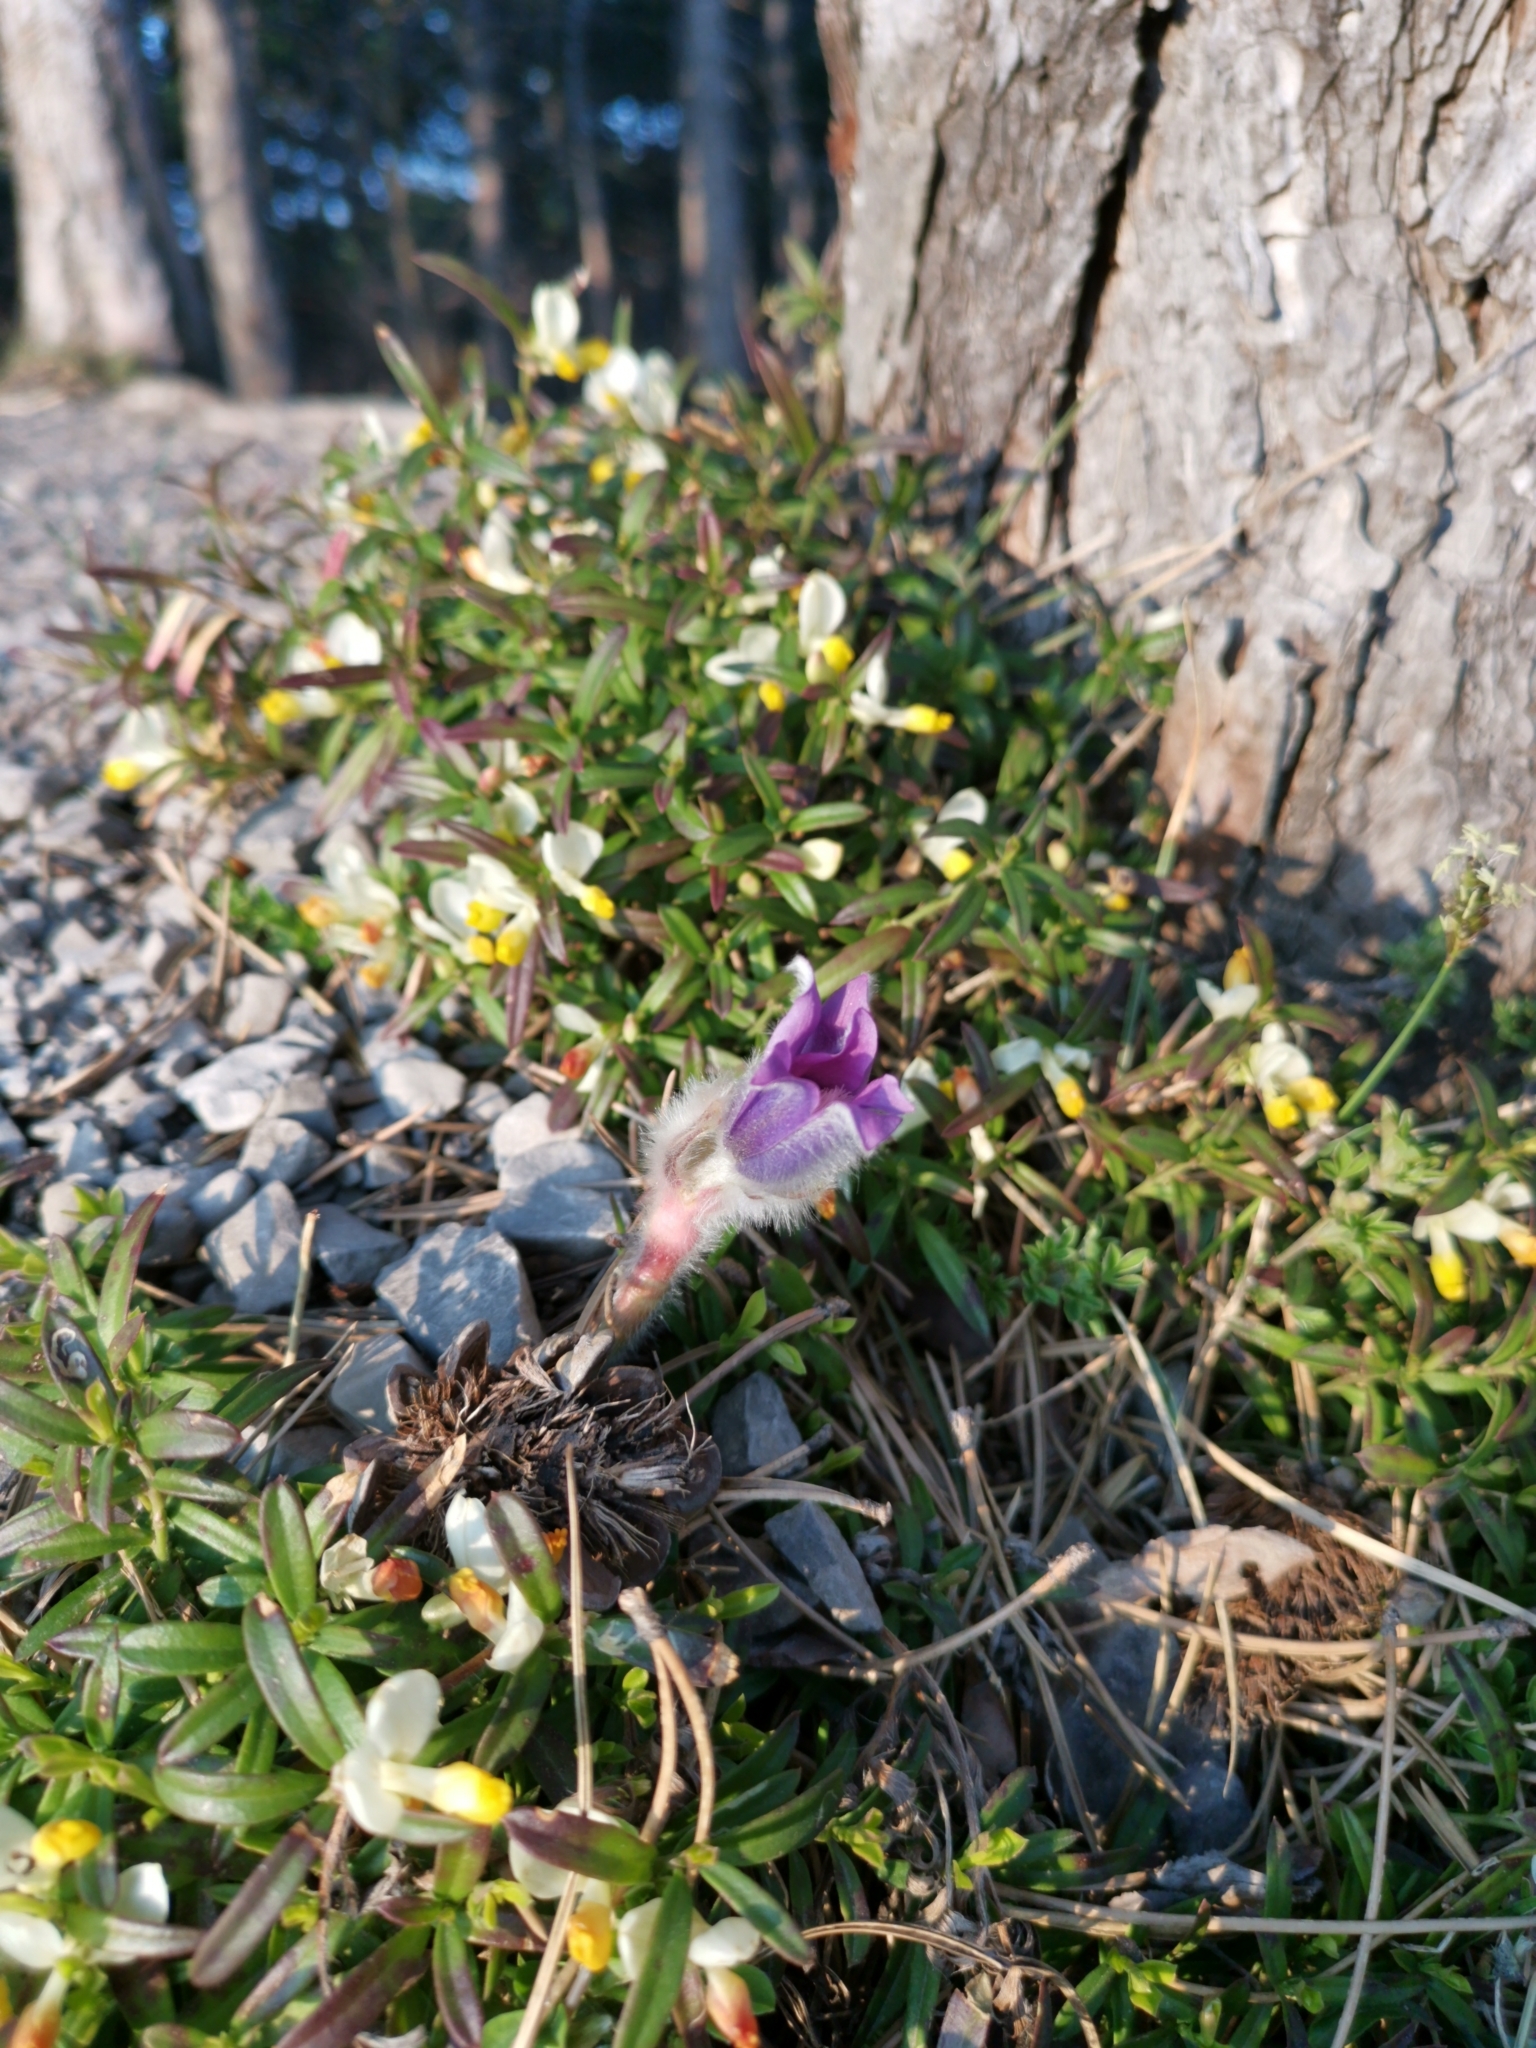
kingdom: Plantae
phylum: Tracheophyta
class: Magnoliopsida
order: Ranunculales
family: Ranunculaceae
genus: Pulsatilla
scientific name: Pulsatilla grandis
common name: Greater pasque flower
